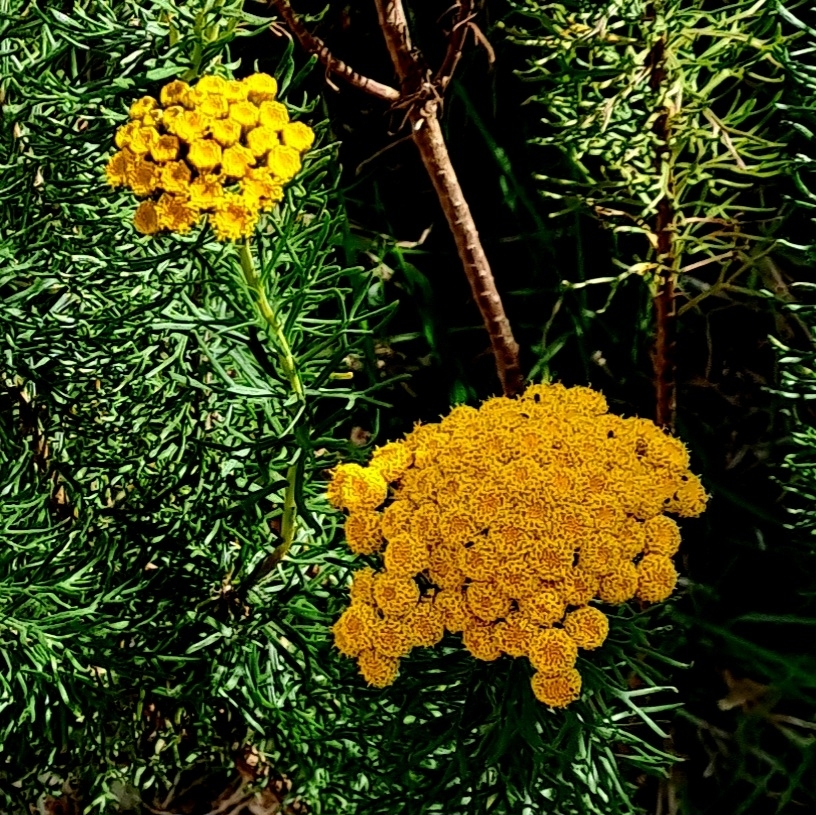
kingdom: Plantae
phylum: Tracheophyta
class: Magnoliopsida
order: Asterales
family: Asteraceae
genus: Athanasia
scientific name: Athanasia crithmifolia
